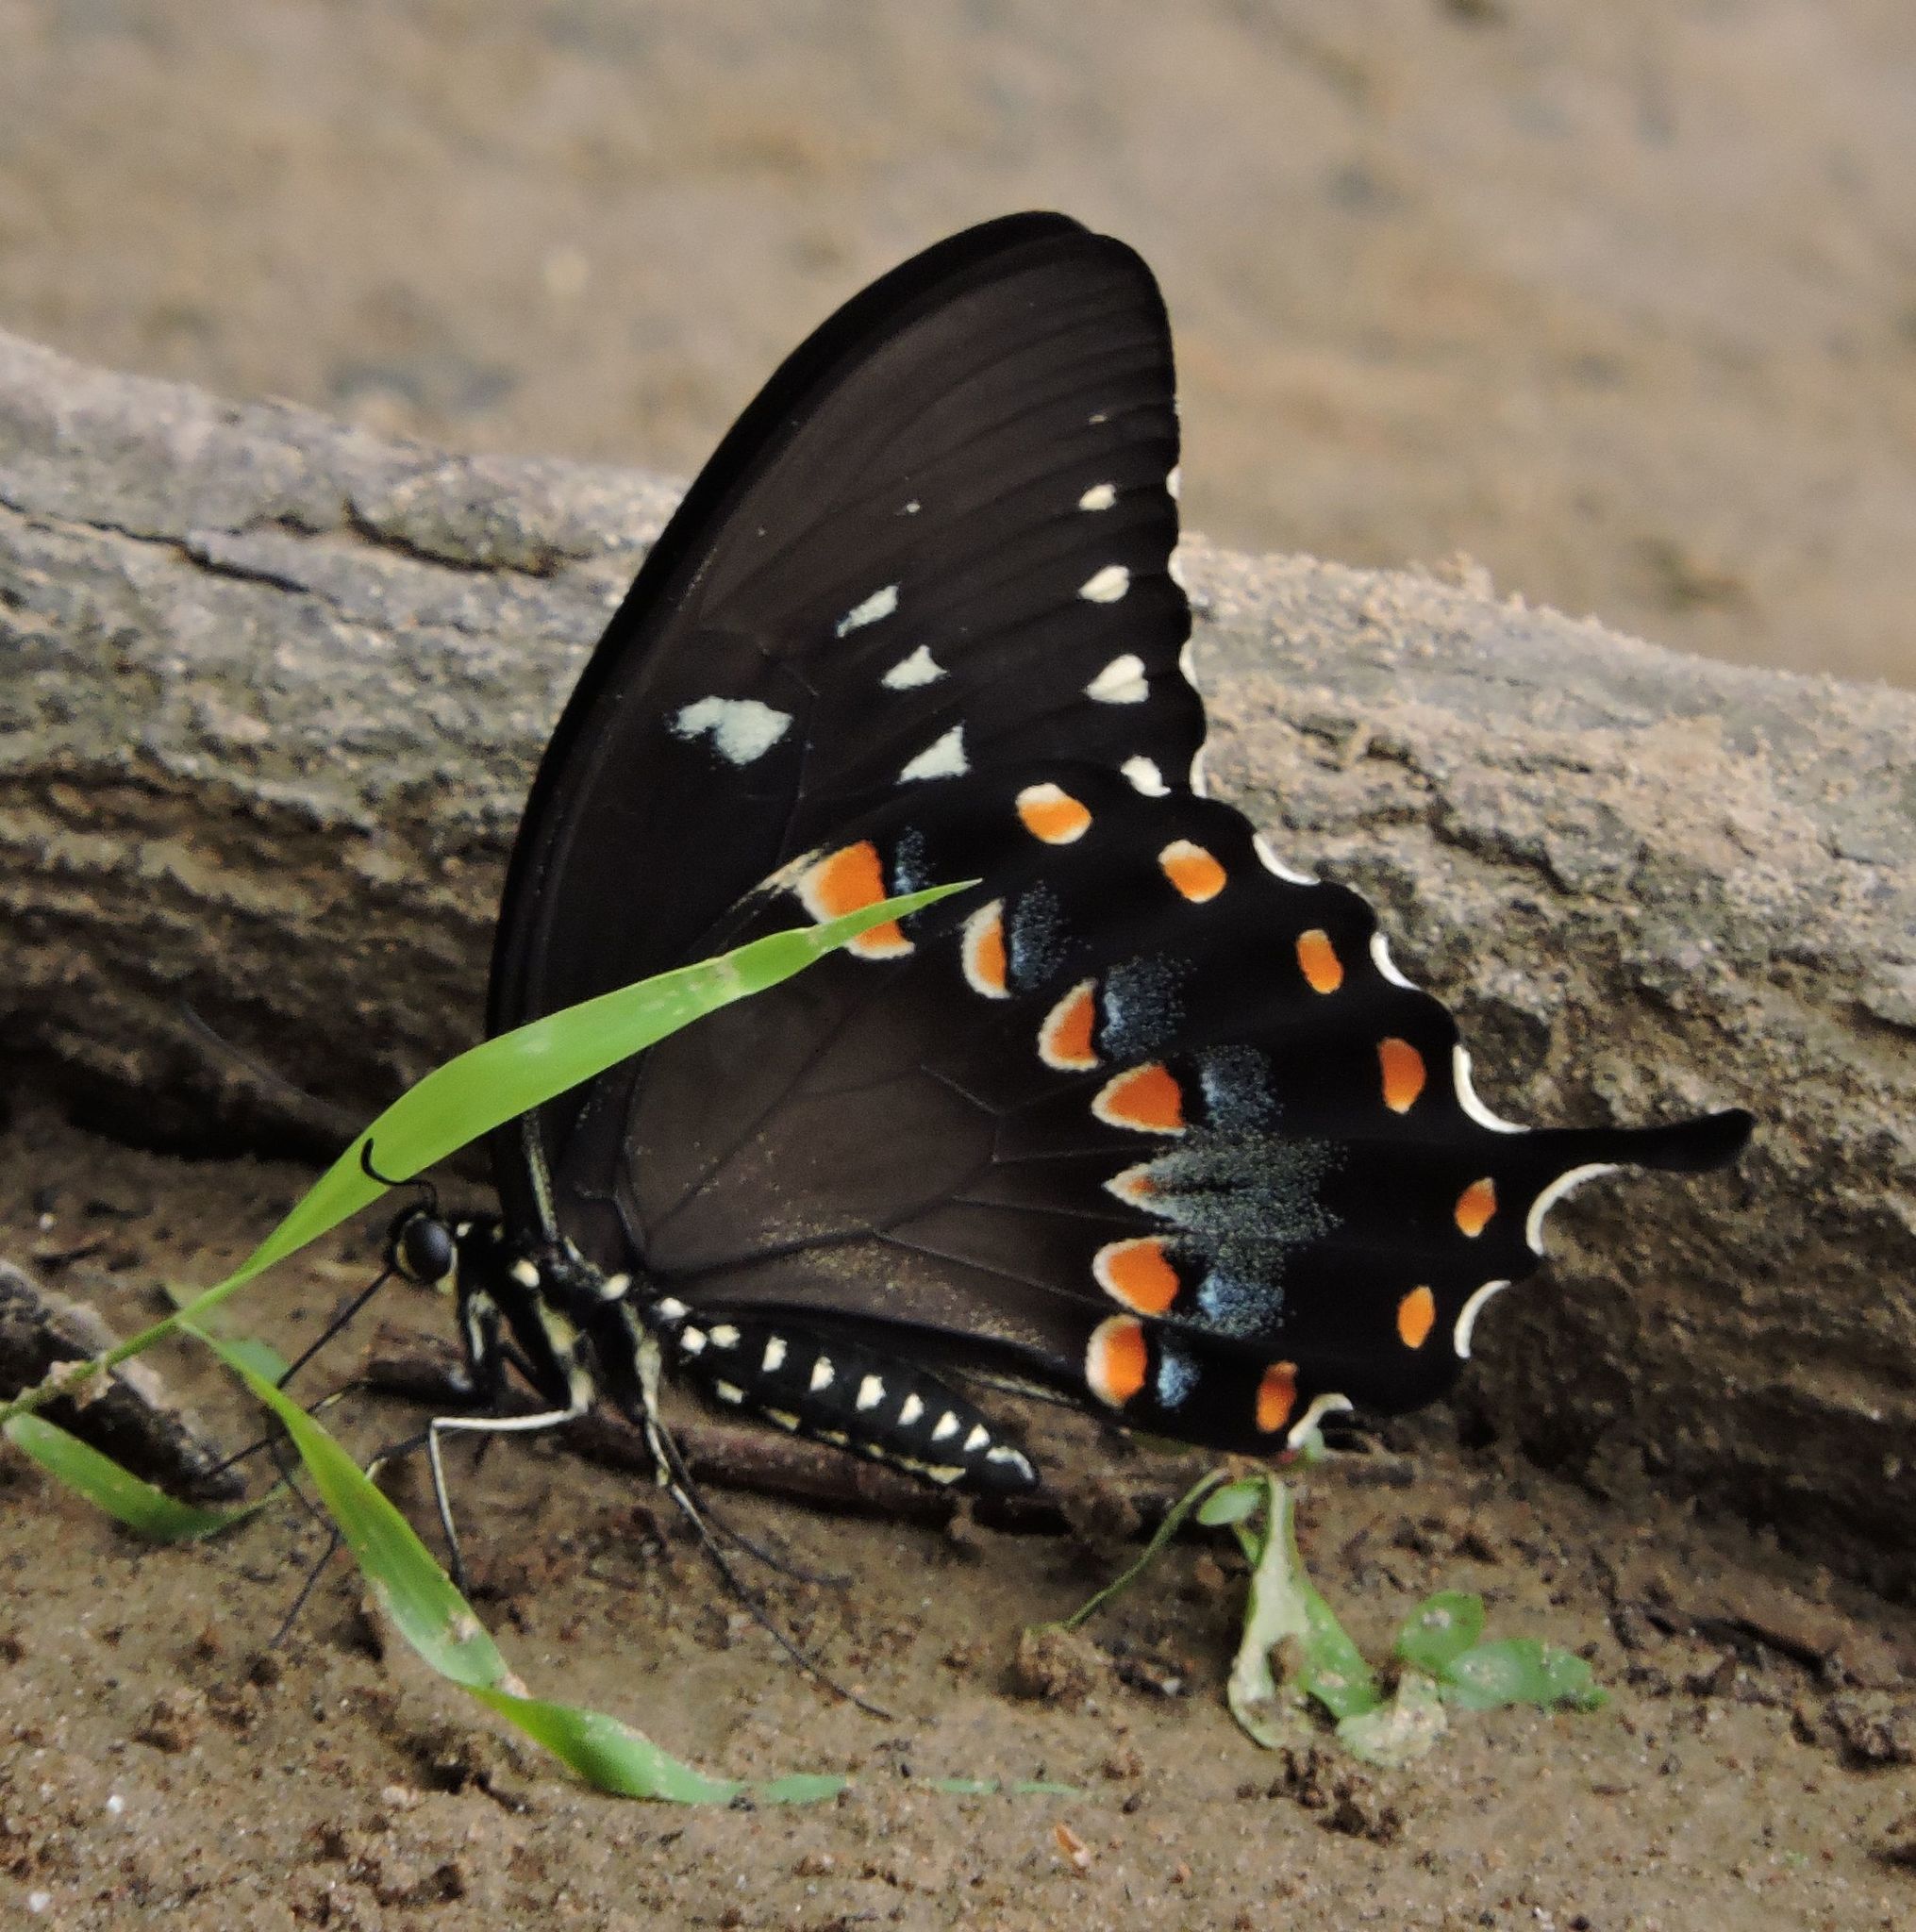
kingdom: Animalia
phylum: Arthropoda
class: Insecta
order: Lepidoptera
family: Papilionidae
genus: Papilio
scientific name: Papilio troilus
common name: Spicebush swallowtail
